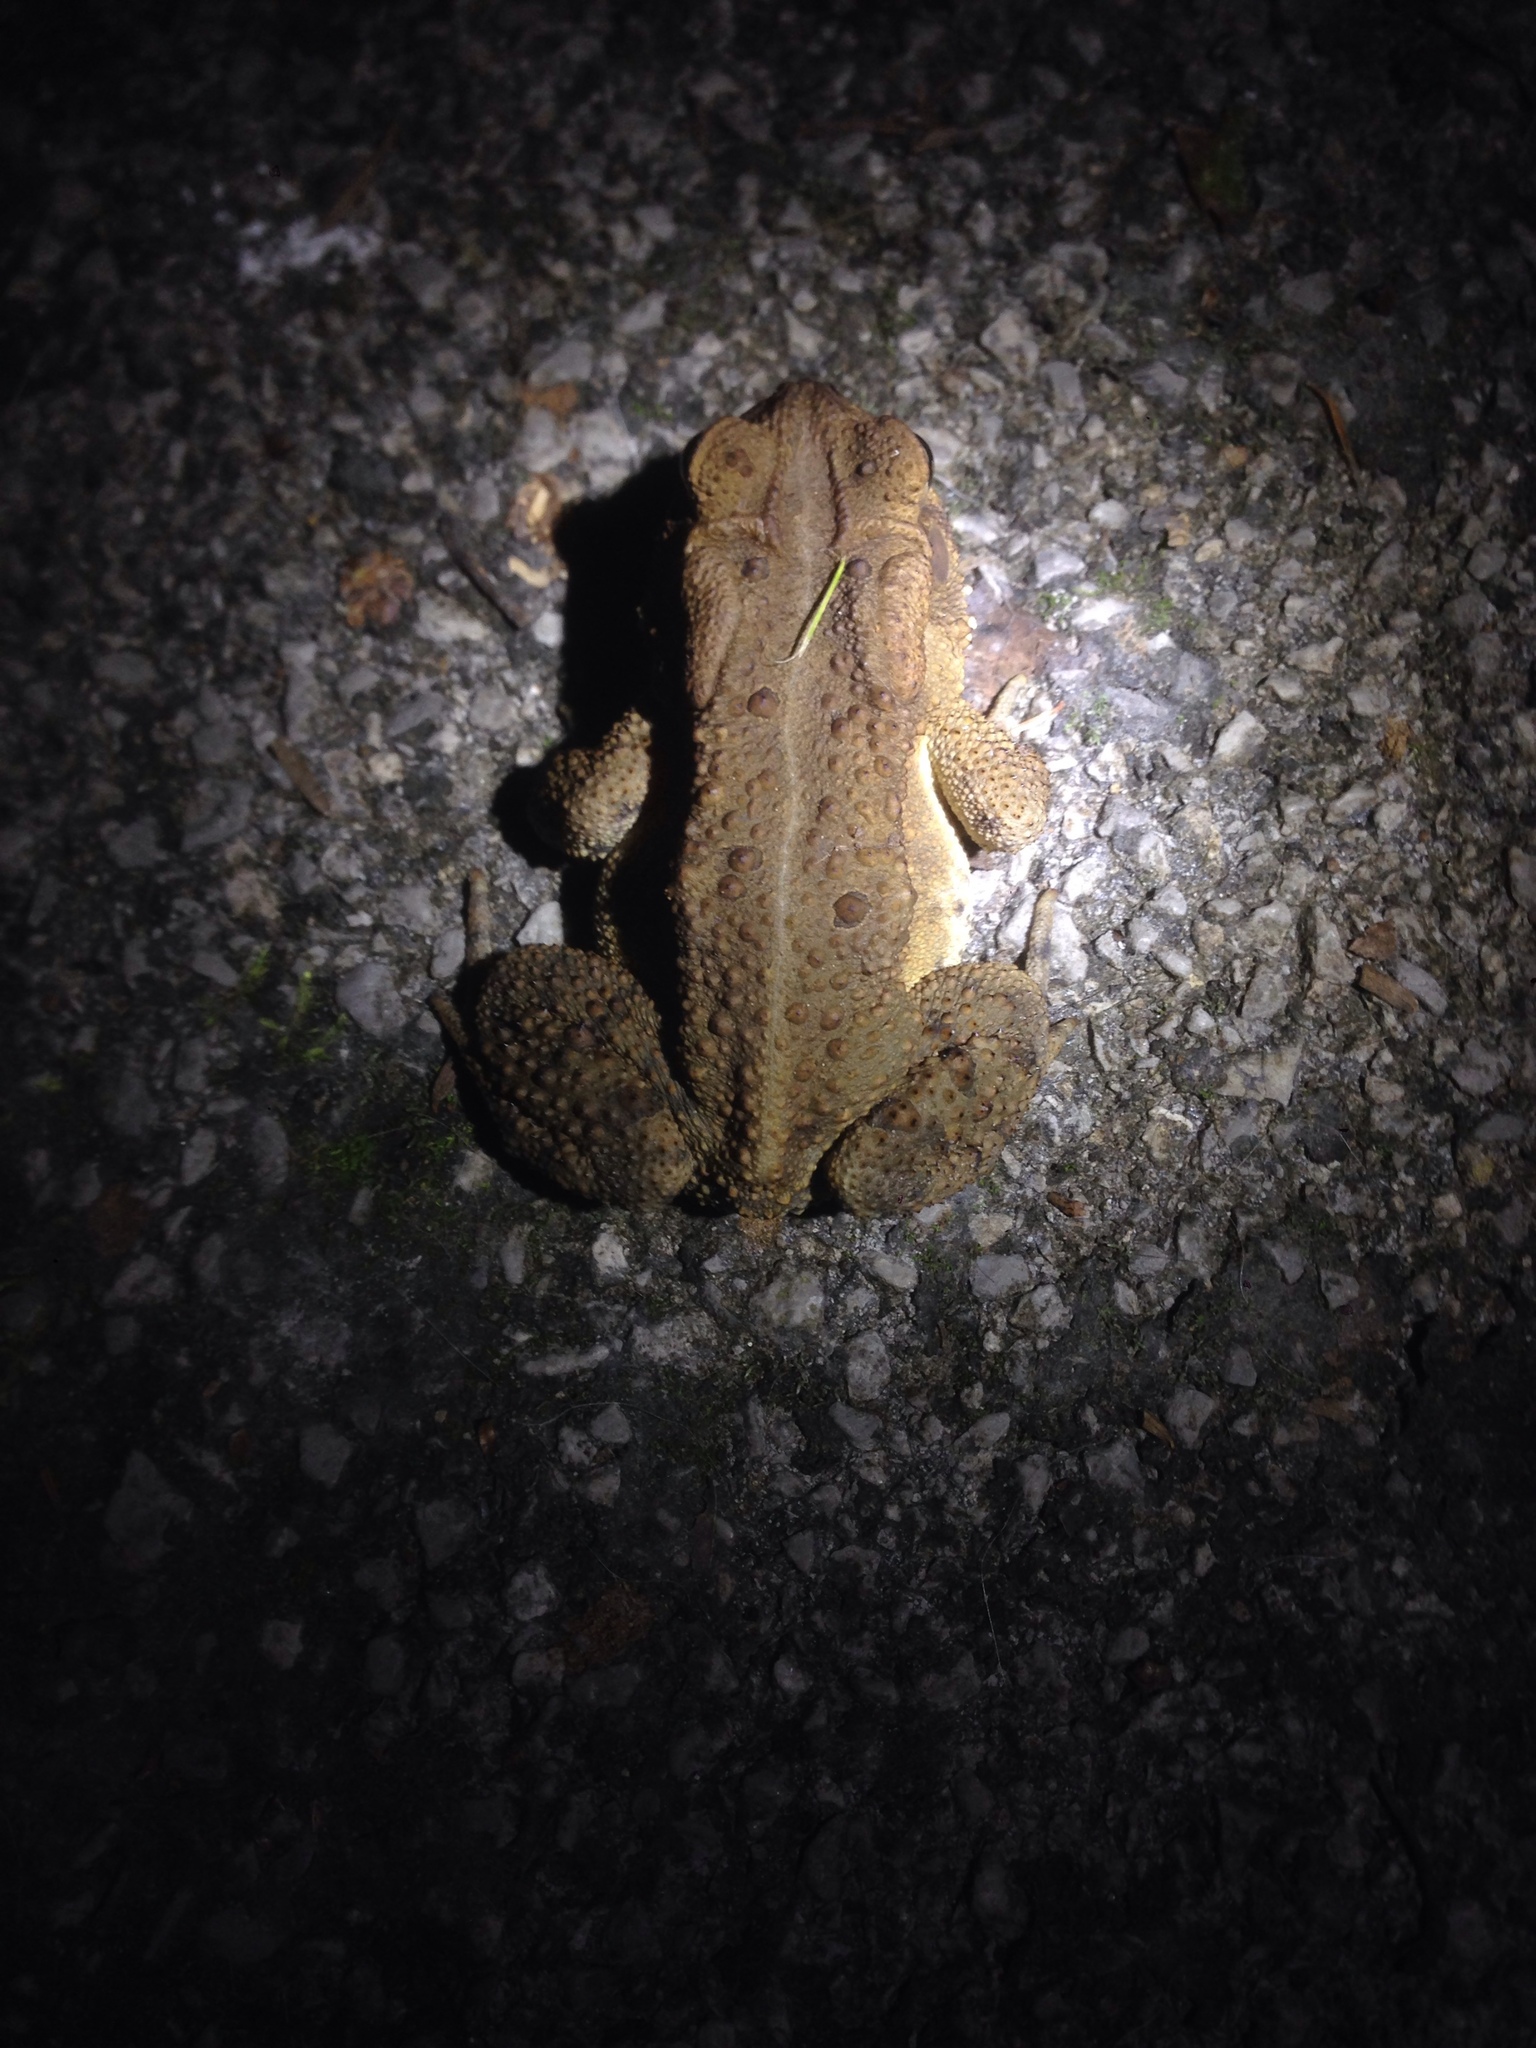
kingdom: Animalia
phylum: Chordata
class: Amphibia
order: Anura
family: Bufonidae
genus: Anaxyrus
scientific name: Anaxyrus americanus
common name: American toad
